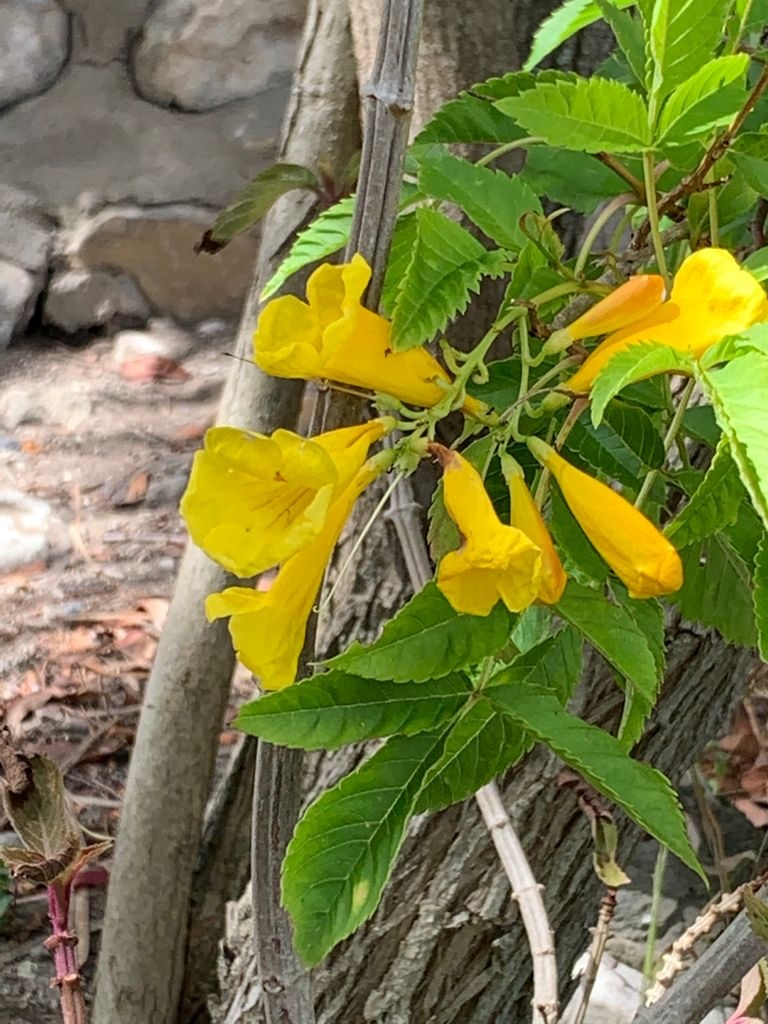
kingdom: Plantae
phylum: Tracheophyta
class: Magnoliopsida
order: Lamiales
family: Bignoniaceae
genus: Tecoma
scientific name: Tecoma stans
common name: Yellow trumpetbush
